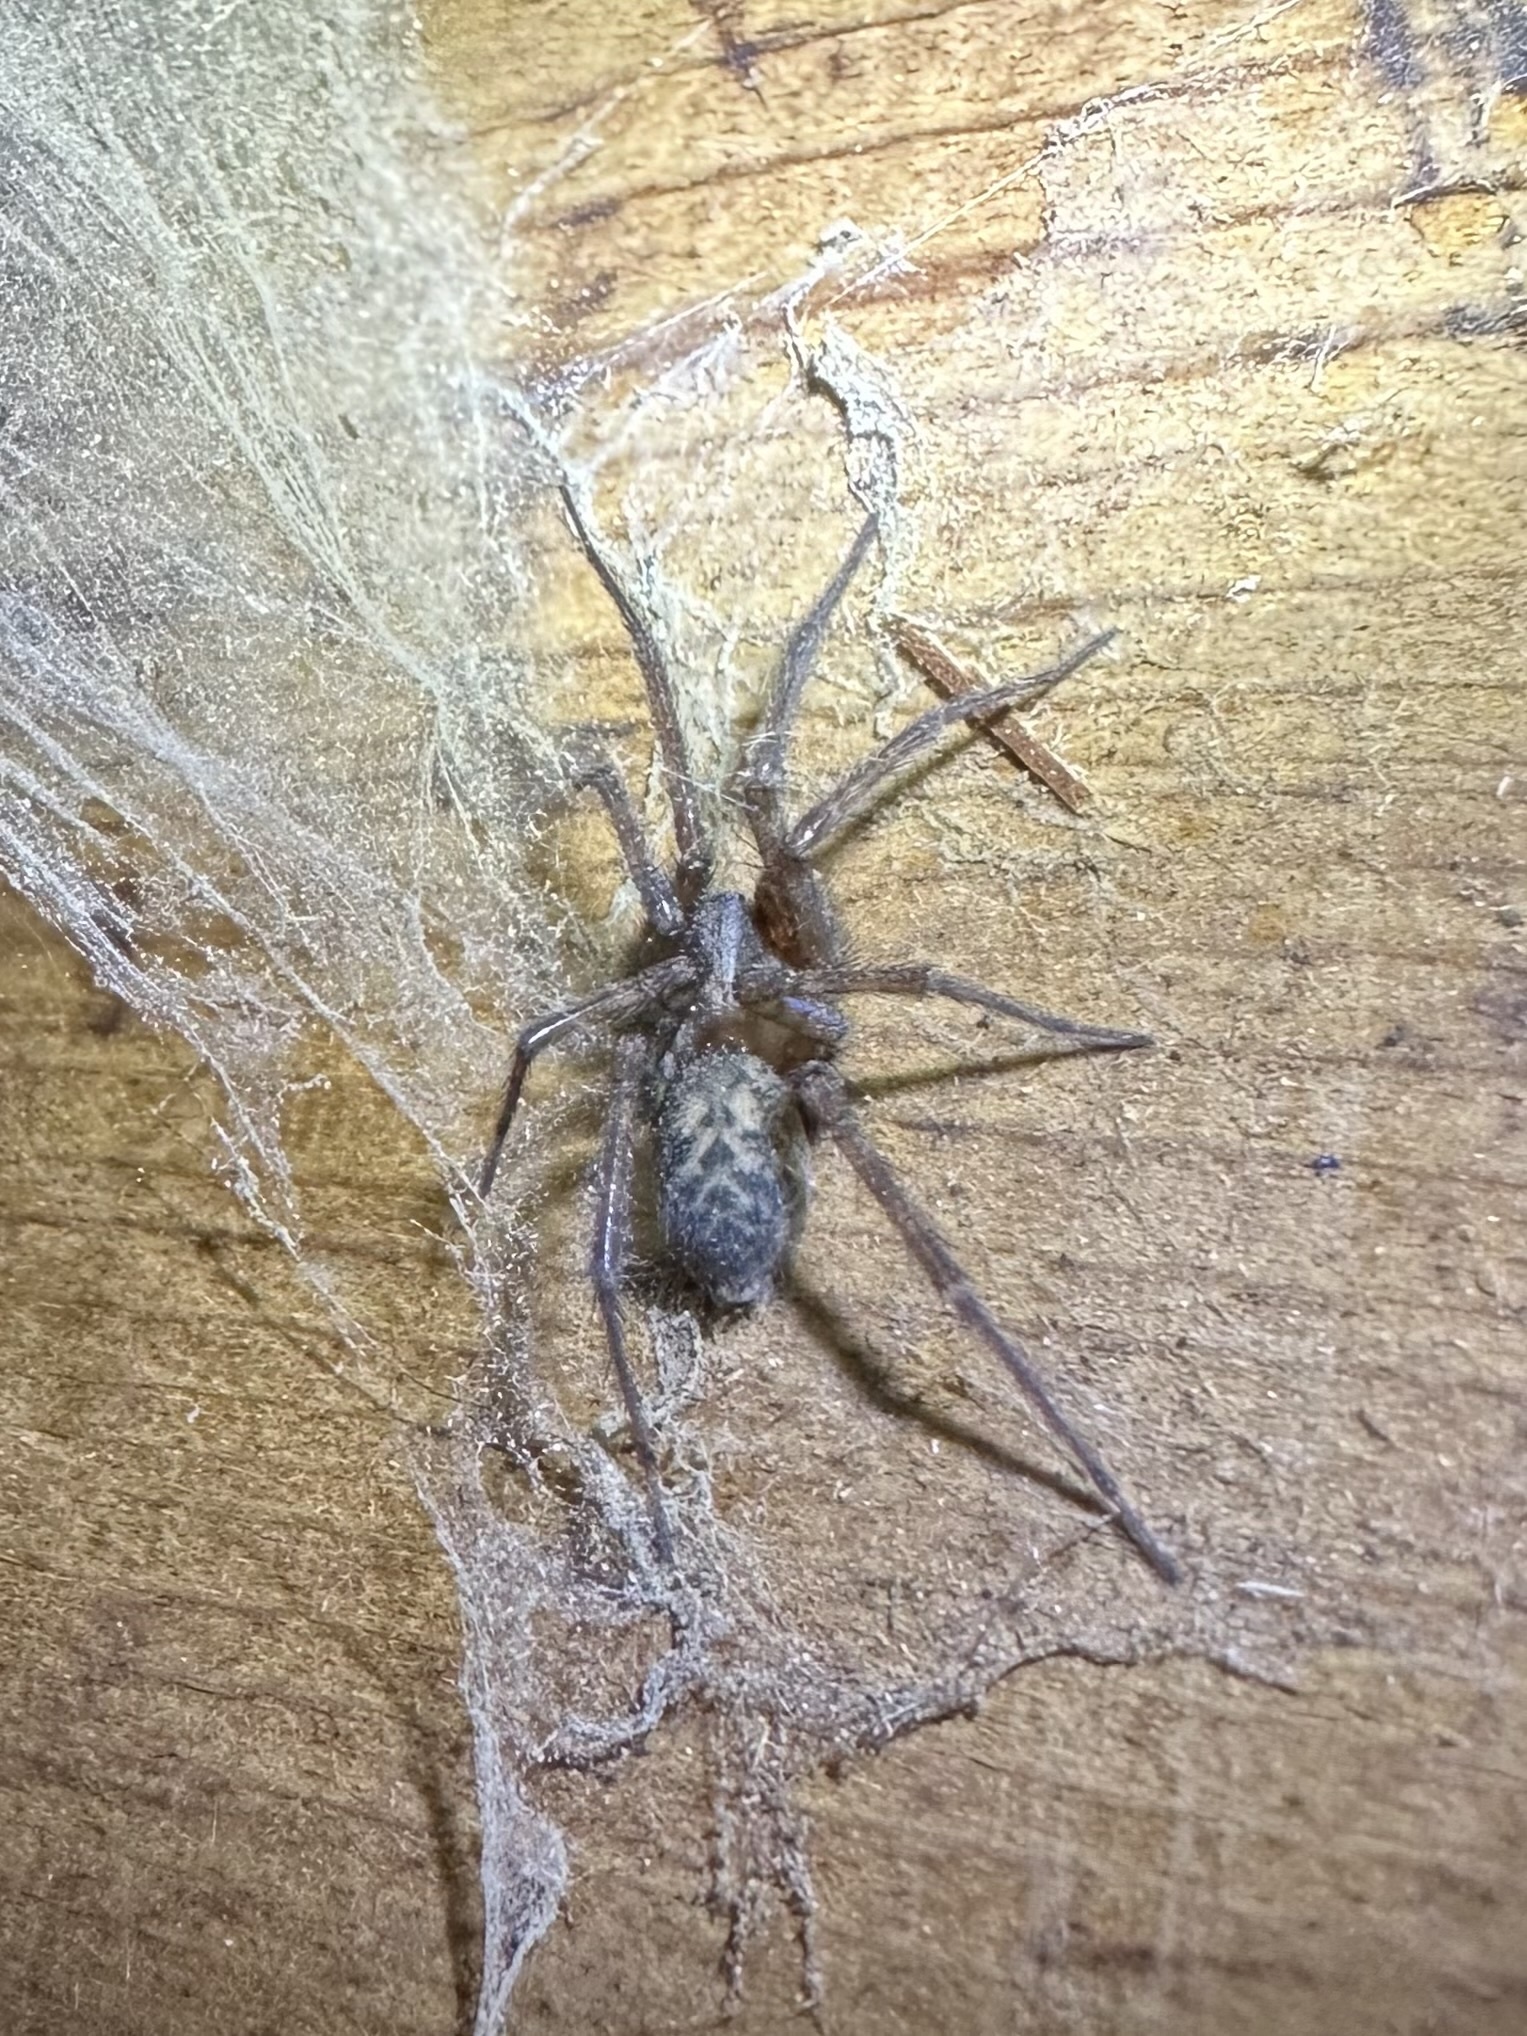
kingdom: Animalia
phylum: Arthropoda
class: Arachnida
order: Araneae
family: Agelenidae
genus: Tegenaria
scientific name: Tegenaria domestica
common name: Barn funnel weaver
